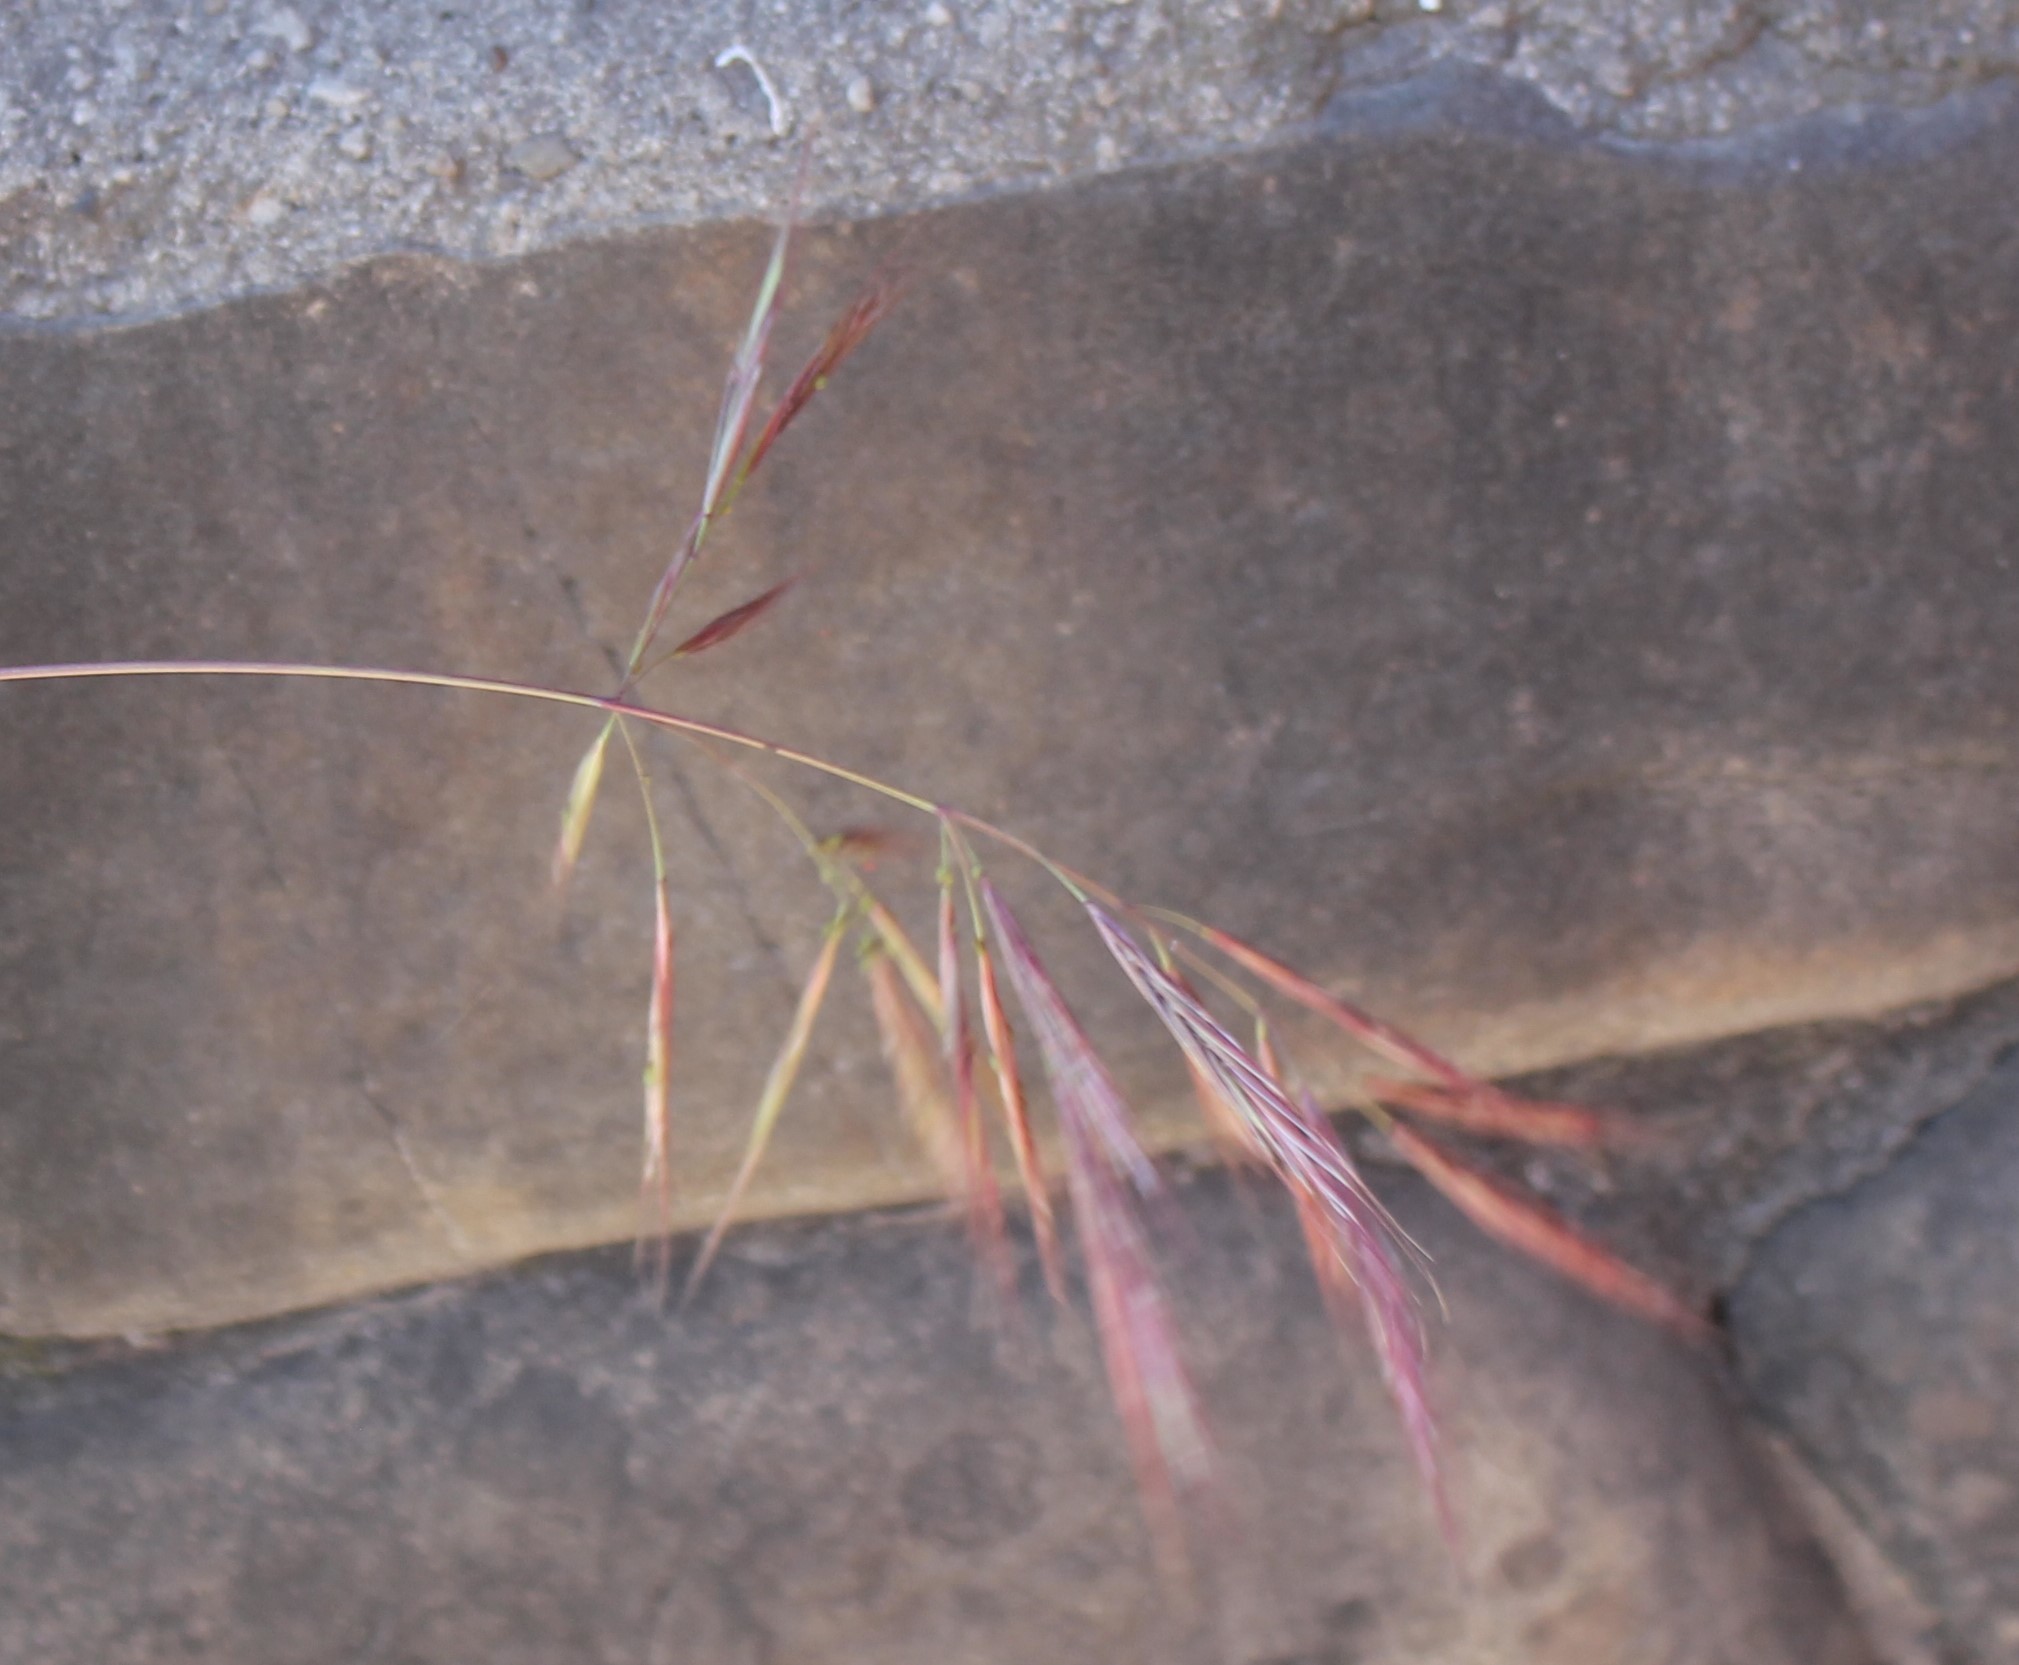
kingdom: Plantae
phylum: Tracheophyta
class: Liliopsida
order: Poales
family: Poaceae
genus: Bromus
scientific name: Bromus
